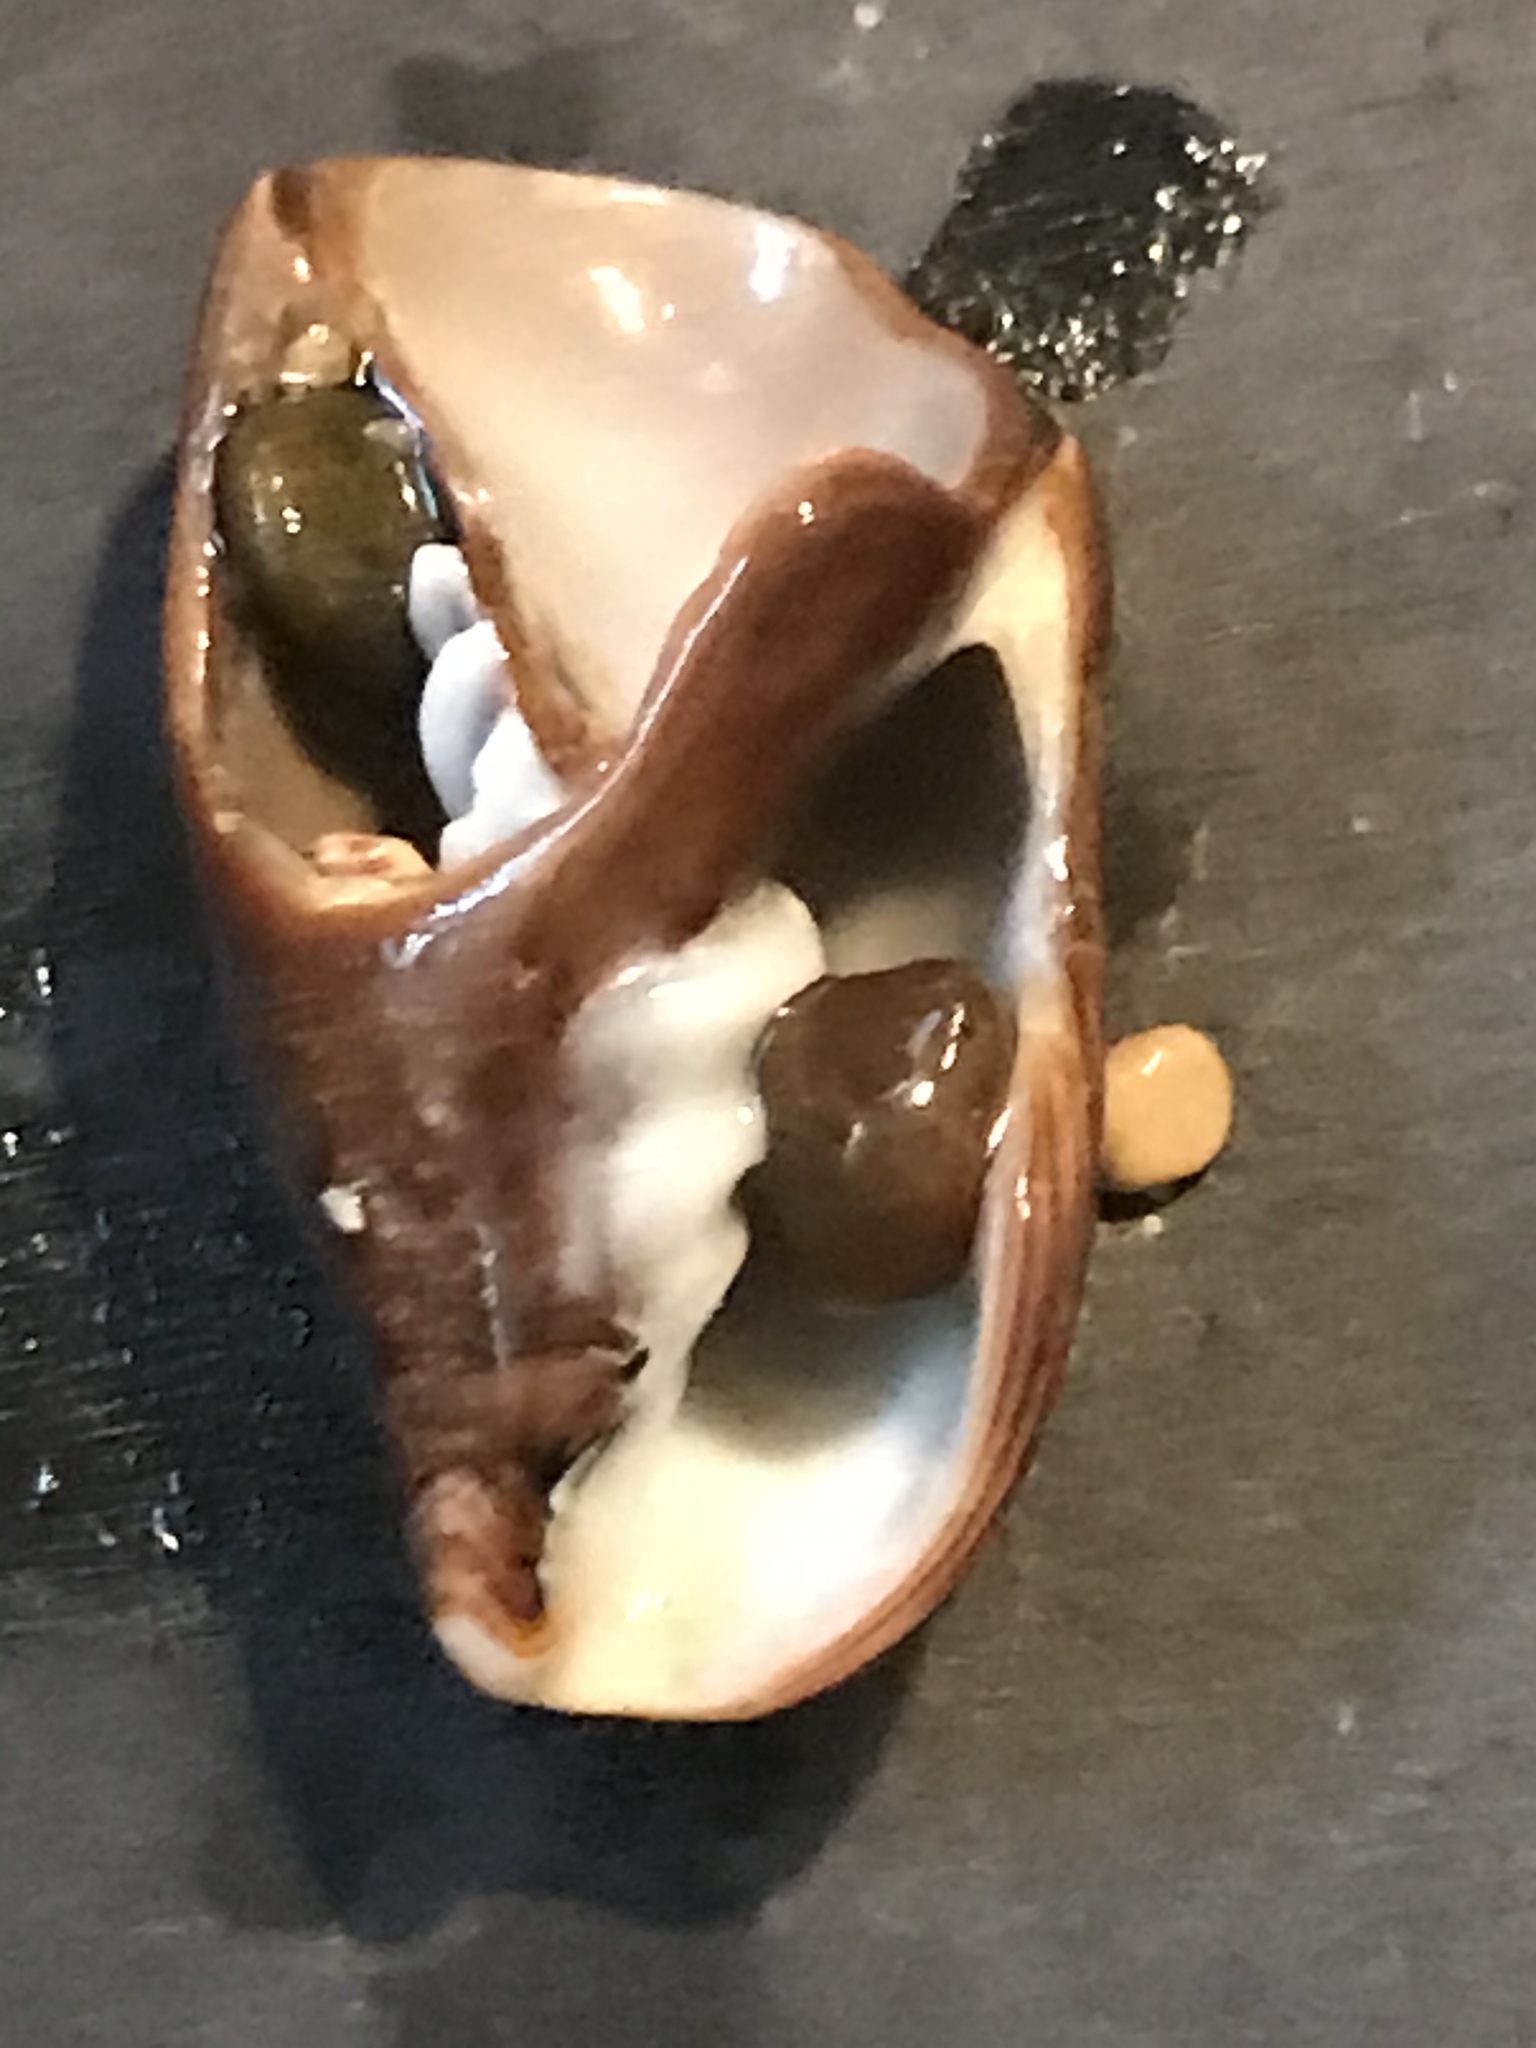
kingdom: Animalia
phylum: Mollusca
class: Gastropoda
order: Neogastropoda
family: Mitridae
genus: Atrimitra
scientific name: Atrimitra idae
